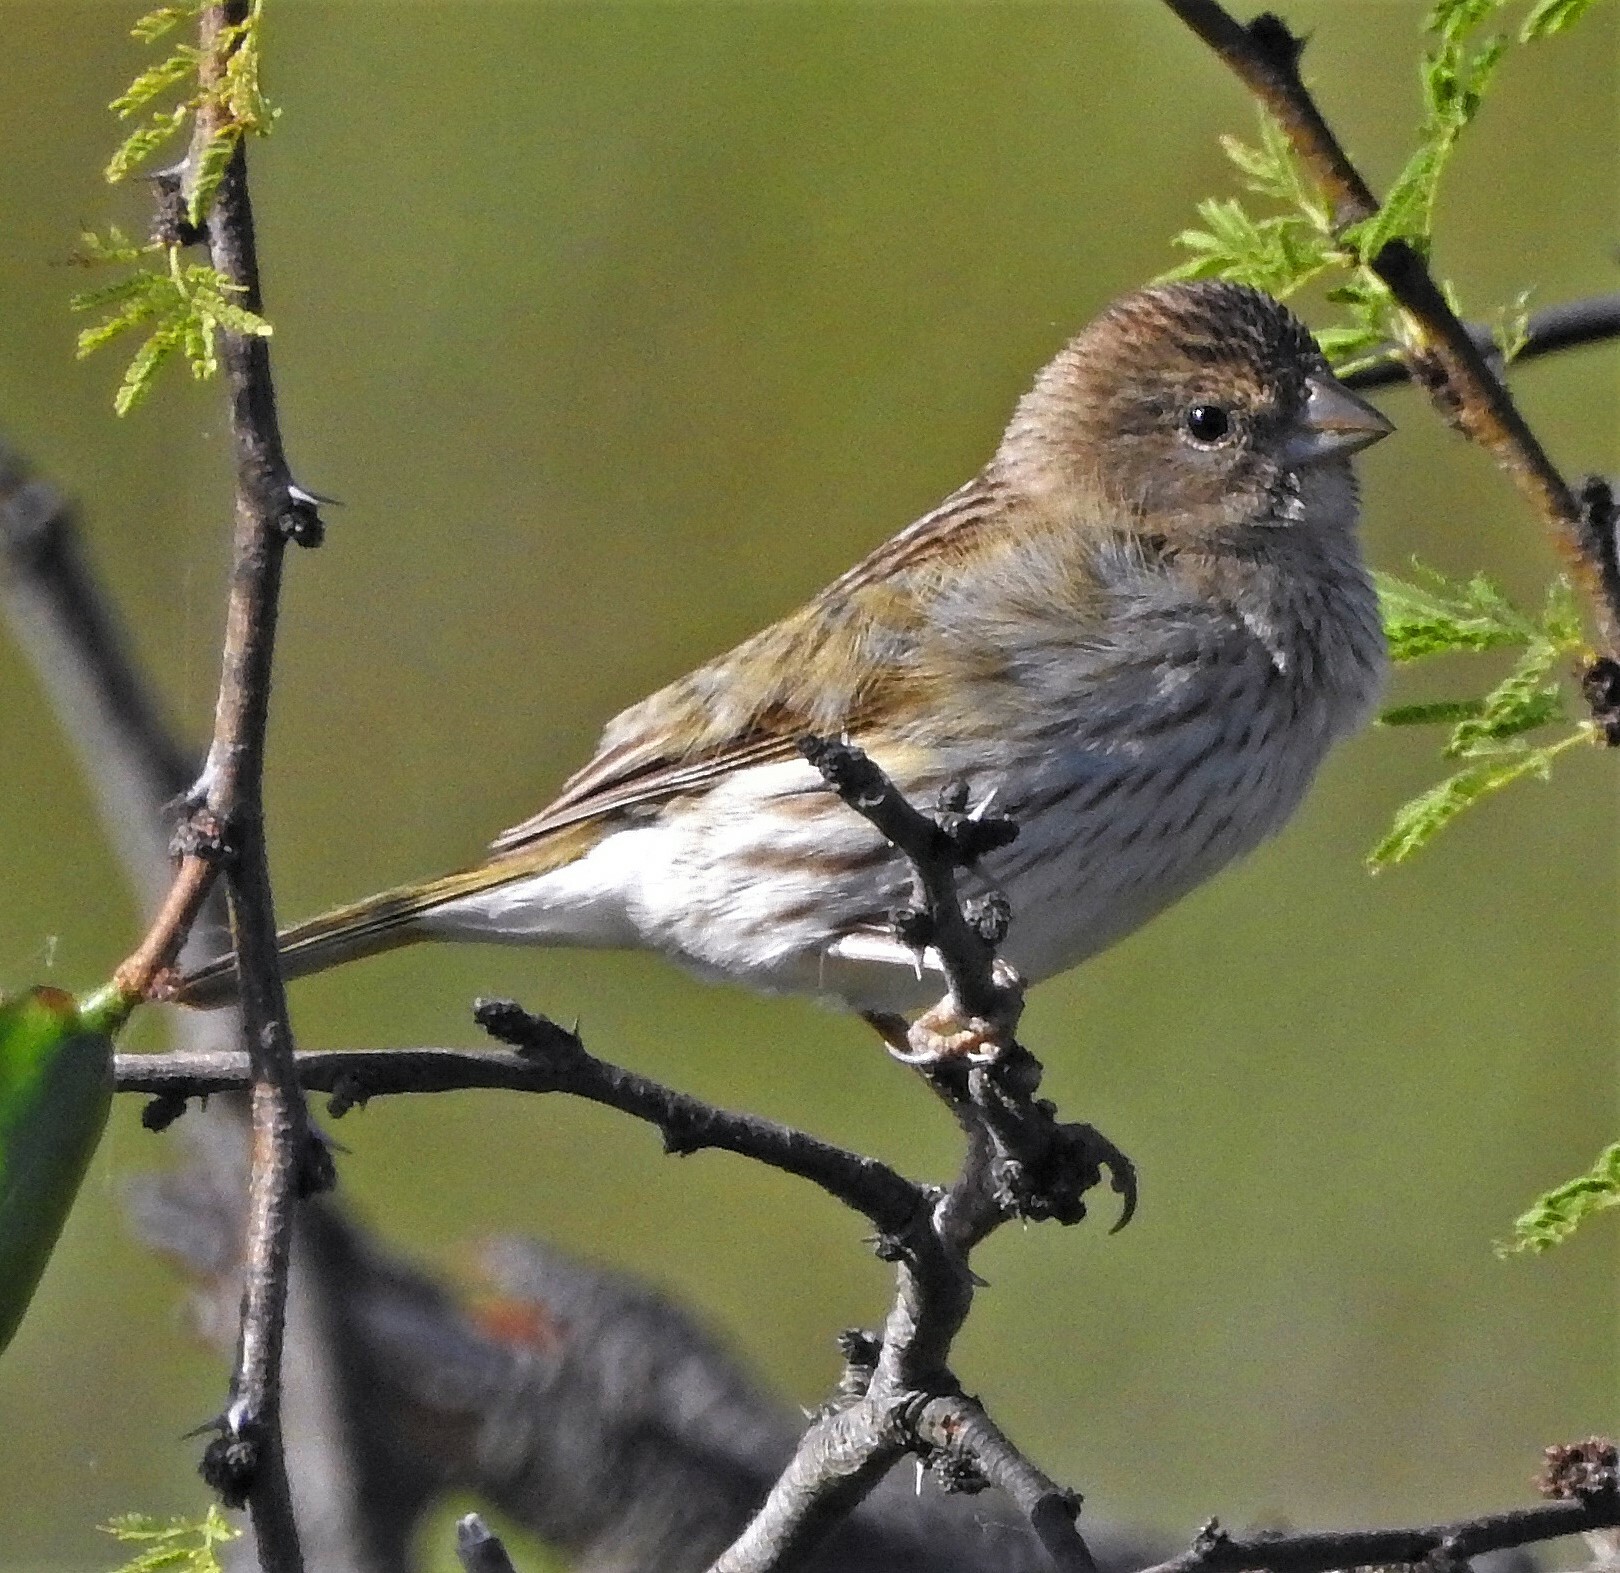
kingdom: Animalia
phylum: Chordata
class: Aves
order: Passeriformes
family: Thraupidae
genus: Sicalis
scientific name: Sicalis flaveola
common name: Saffron finch
